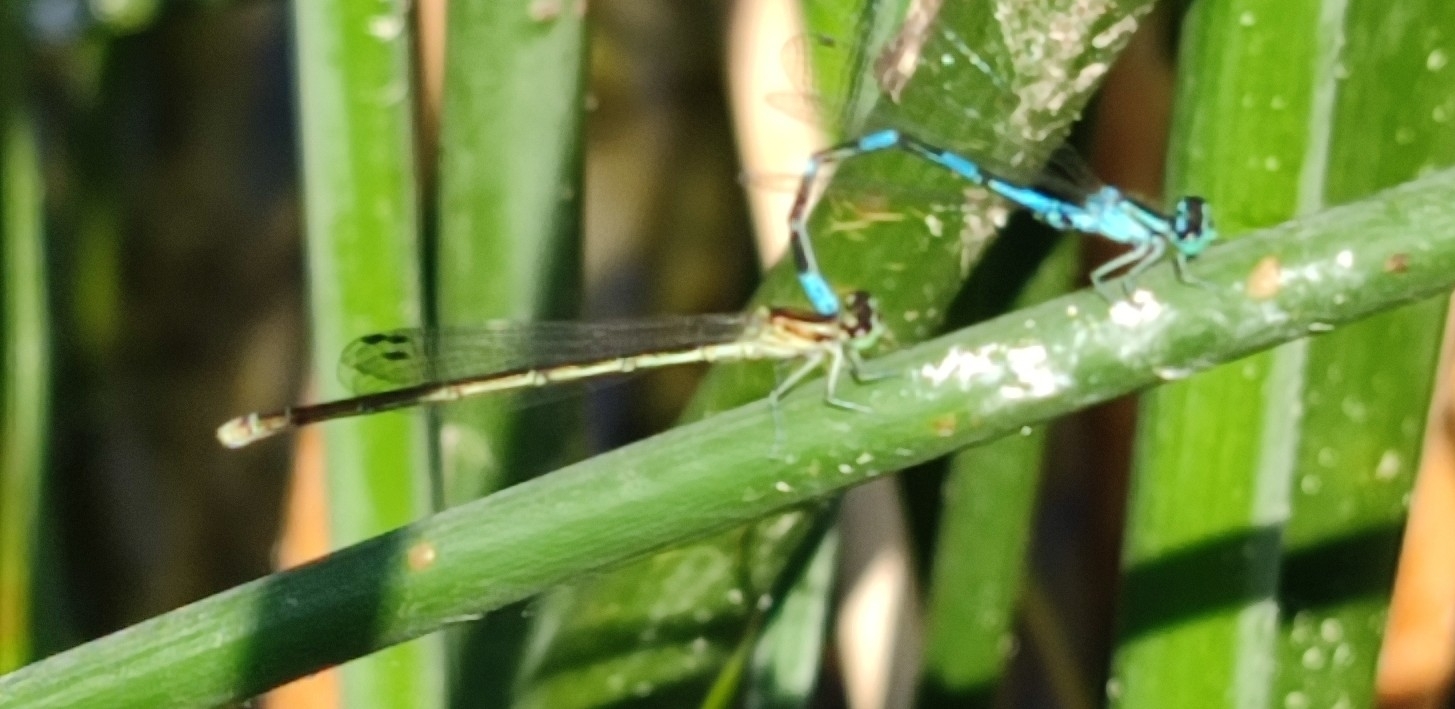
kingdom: Animalia
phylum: Arthropoda
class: Insecta
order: Odonata
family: Coenagrionidae
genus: Coenagrion
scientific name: Coenagrion johanssoni
